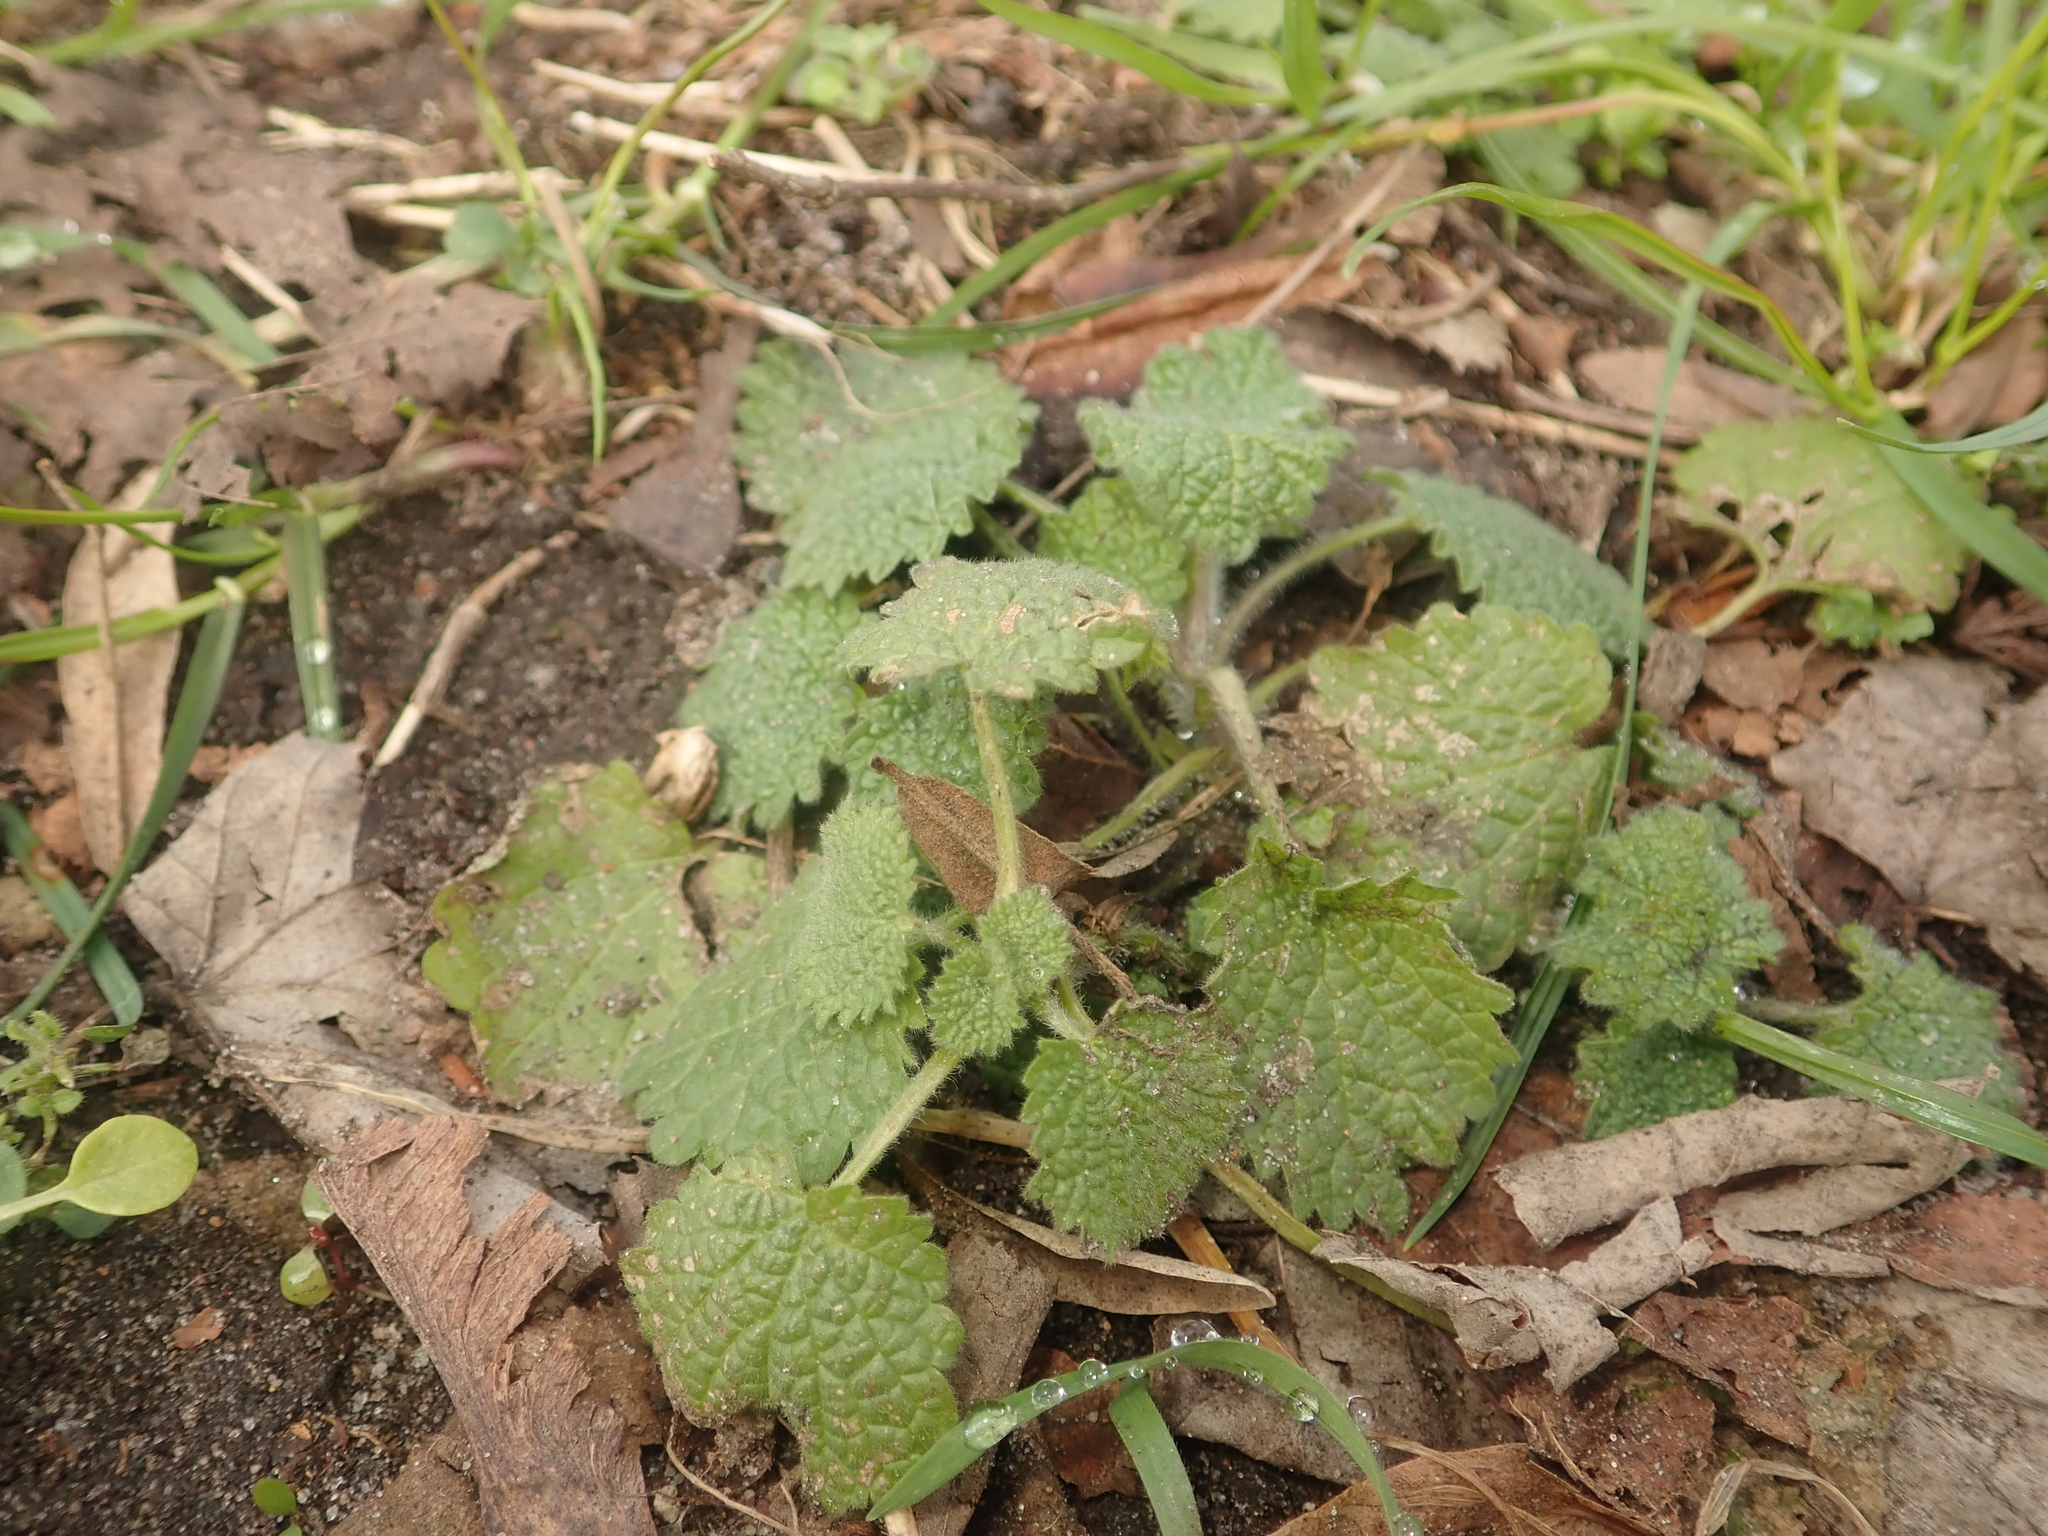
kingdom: Plantae
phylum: Tracheophyta
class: Magnoliopsida
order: Lamiales
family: Lamiaceae
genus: Ballota
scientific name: Ballota nigra
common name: Black horehound
